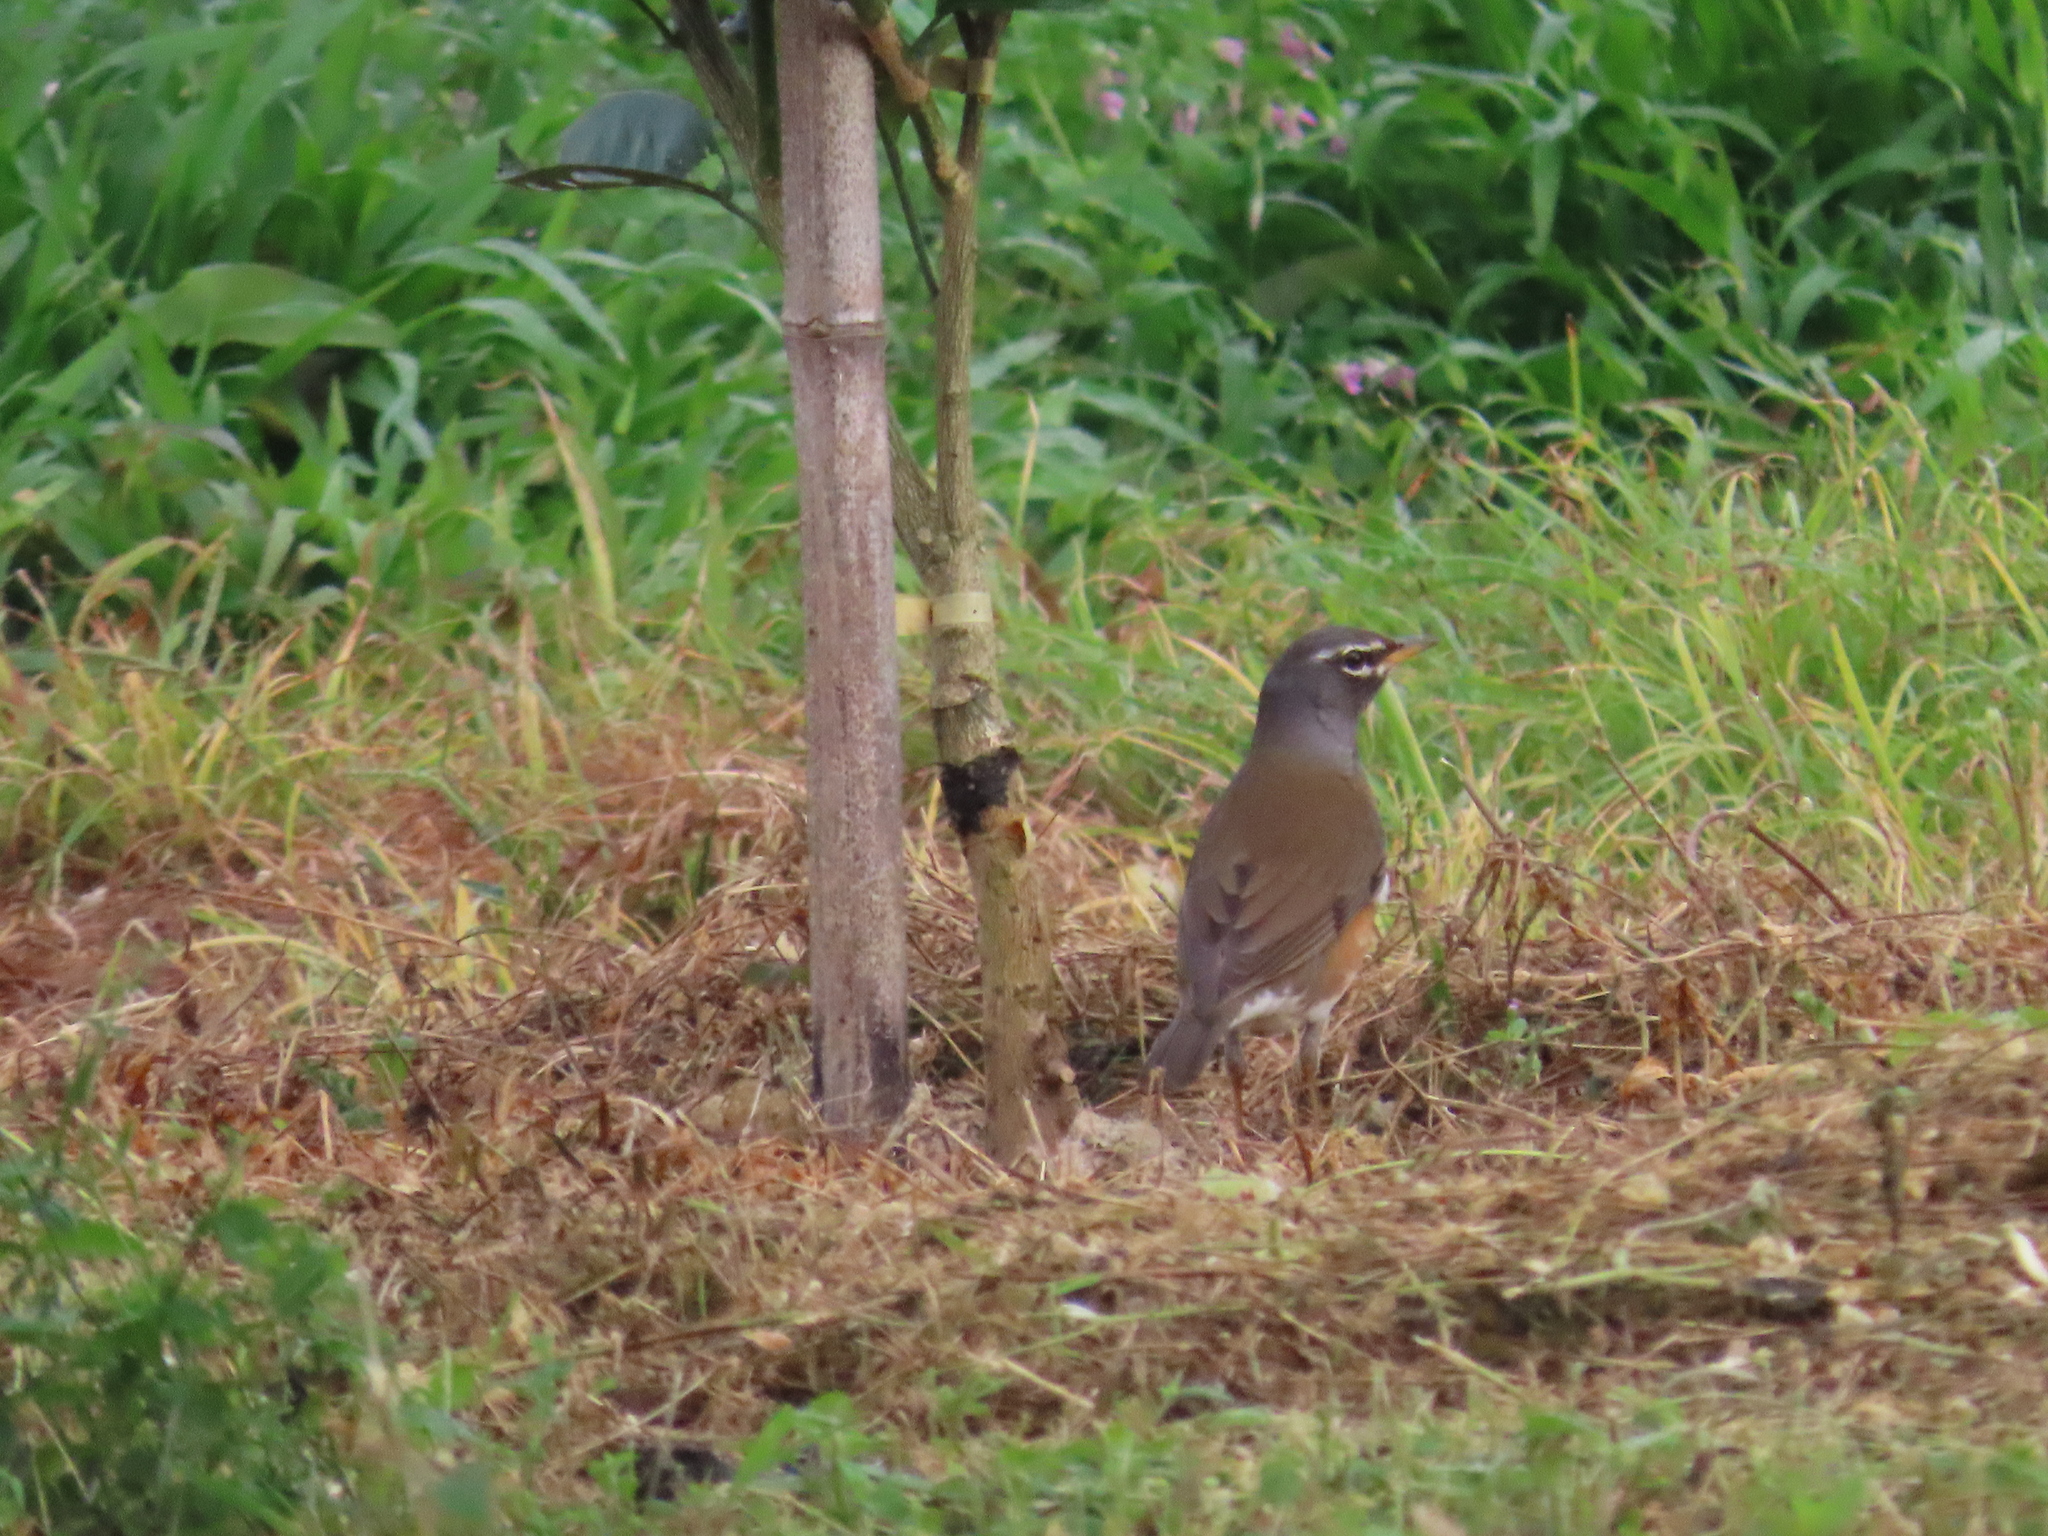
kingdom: Animalia
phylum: Chordata
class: Aves
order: Passeriformes
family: Turdidae
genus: Turdus
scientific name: Turdus obscurus
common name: Eyebrowed thrush
